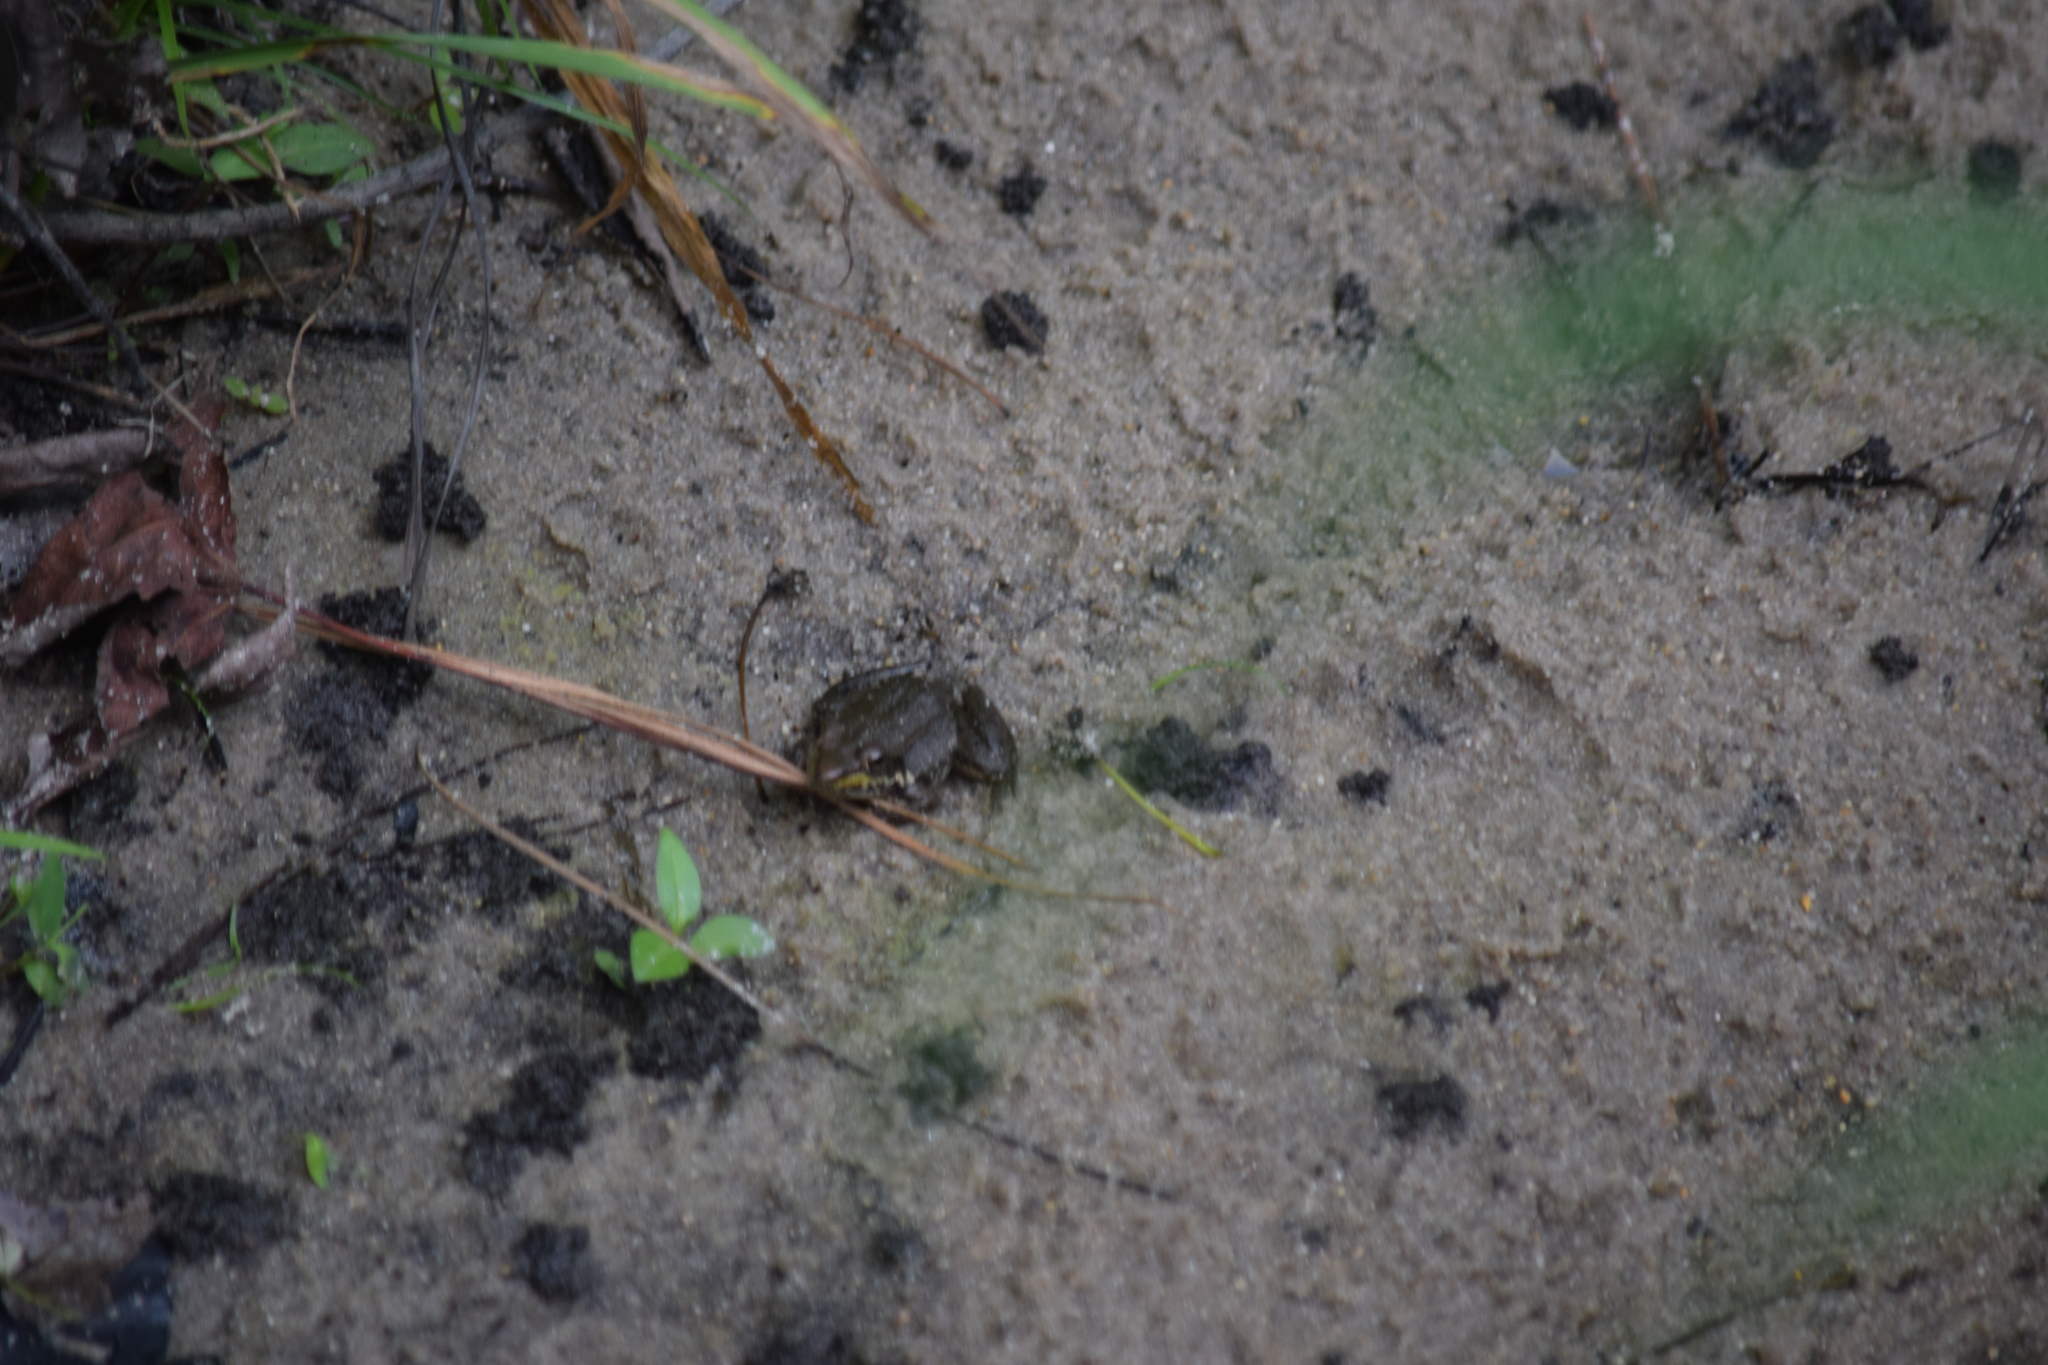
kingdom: Animalia
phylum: Chordata
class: Amphibia
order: Anura
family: Ranidae
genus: Lithobates
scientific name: Lithobates clamitans
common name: Green frog
